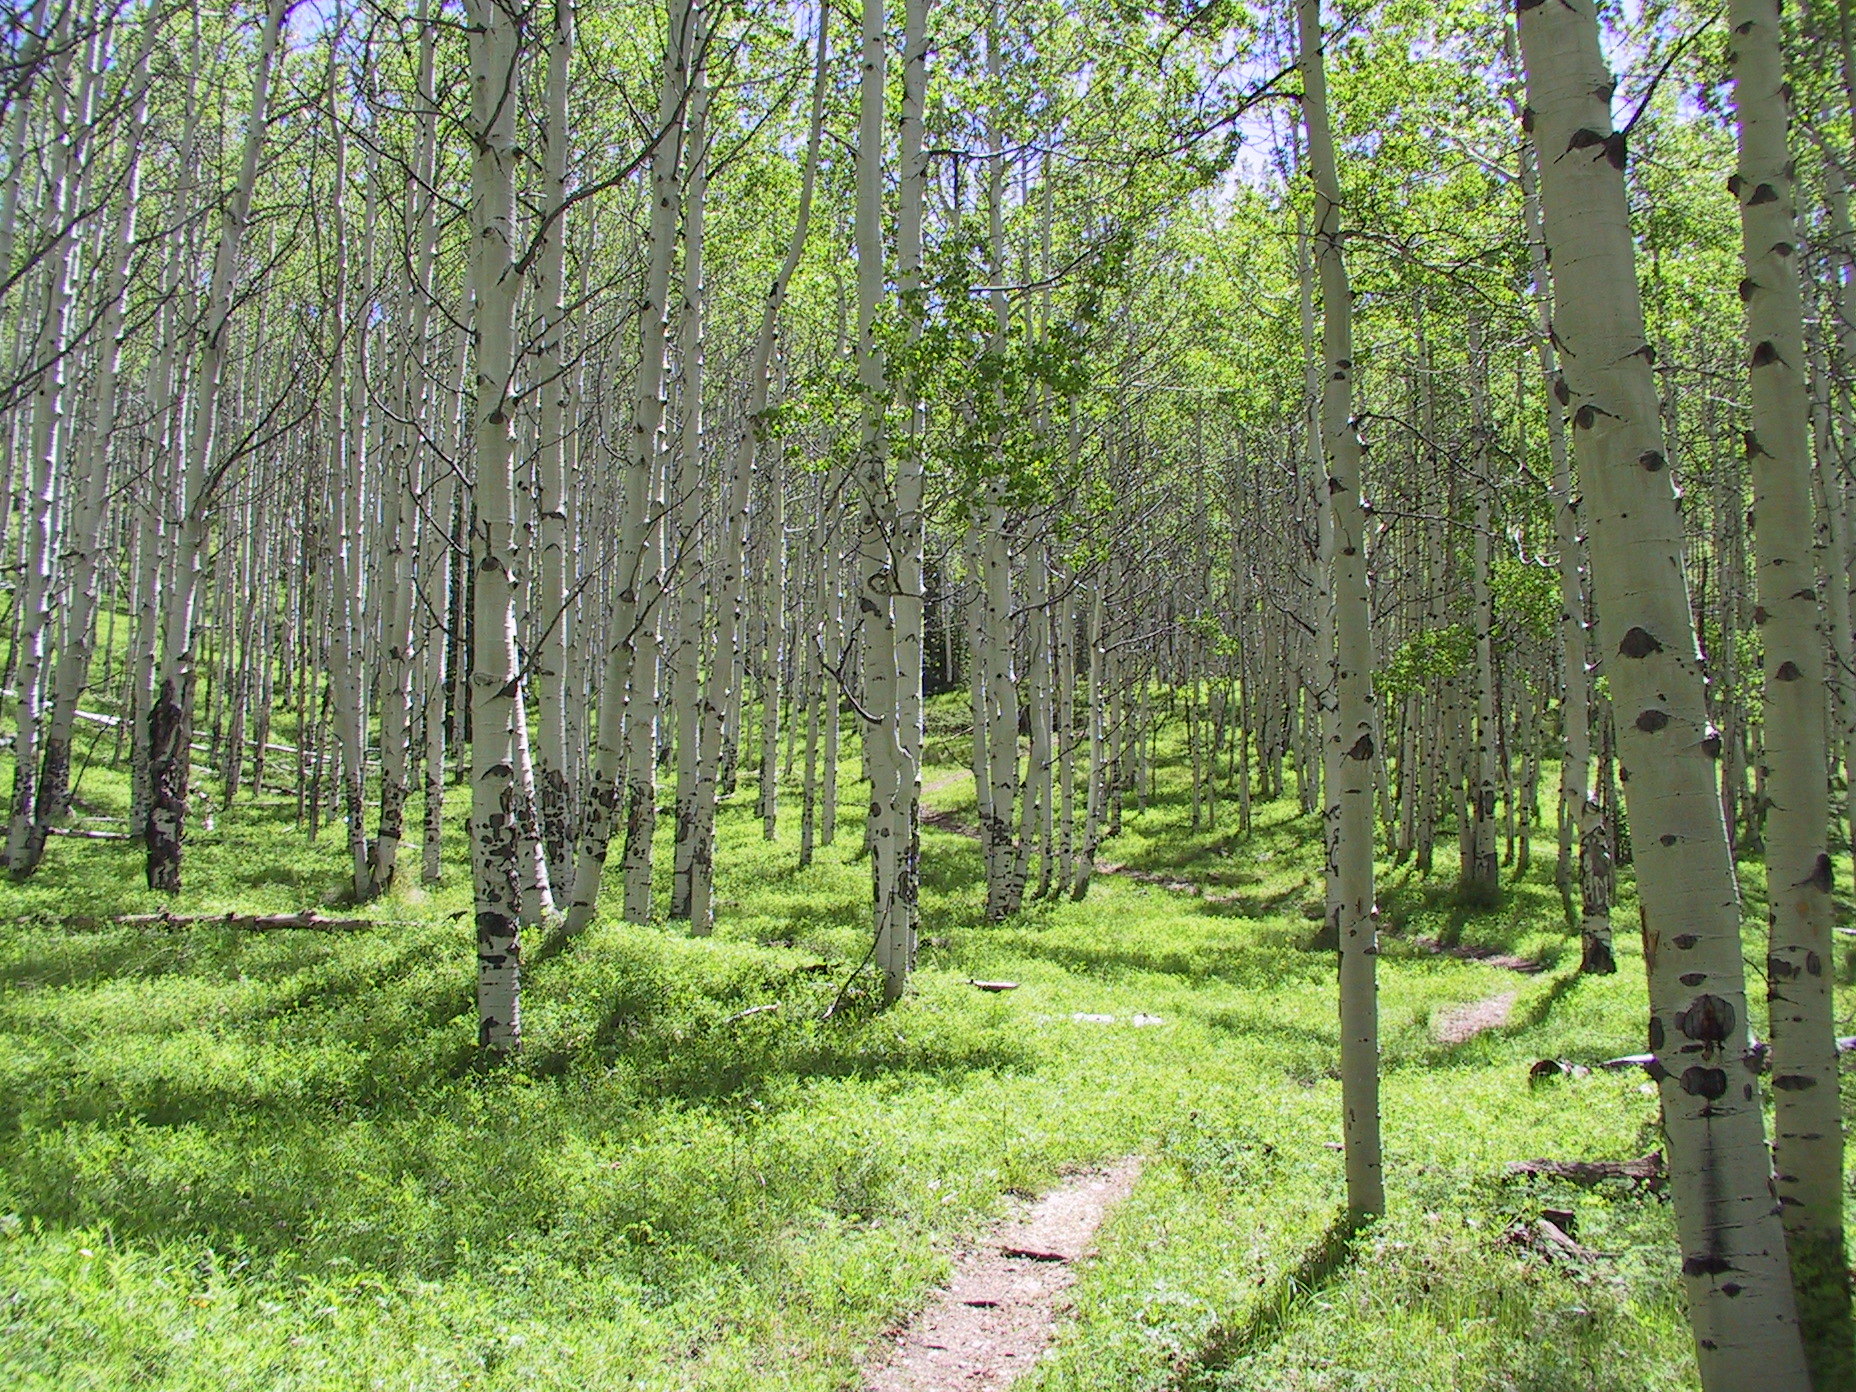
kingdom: Plantae
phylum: Tracheophyta
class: Magnoliopsida
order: Malpighiales
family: Salicaceae
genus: Populus
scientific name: Populus tremuloides
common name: Quaking aspen
